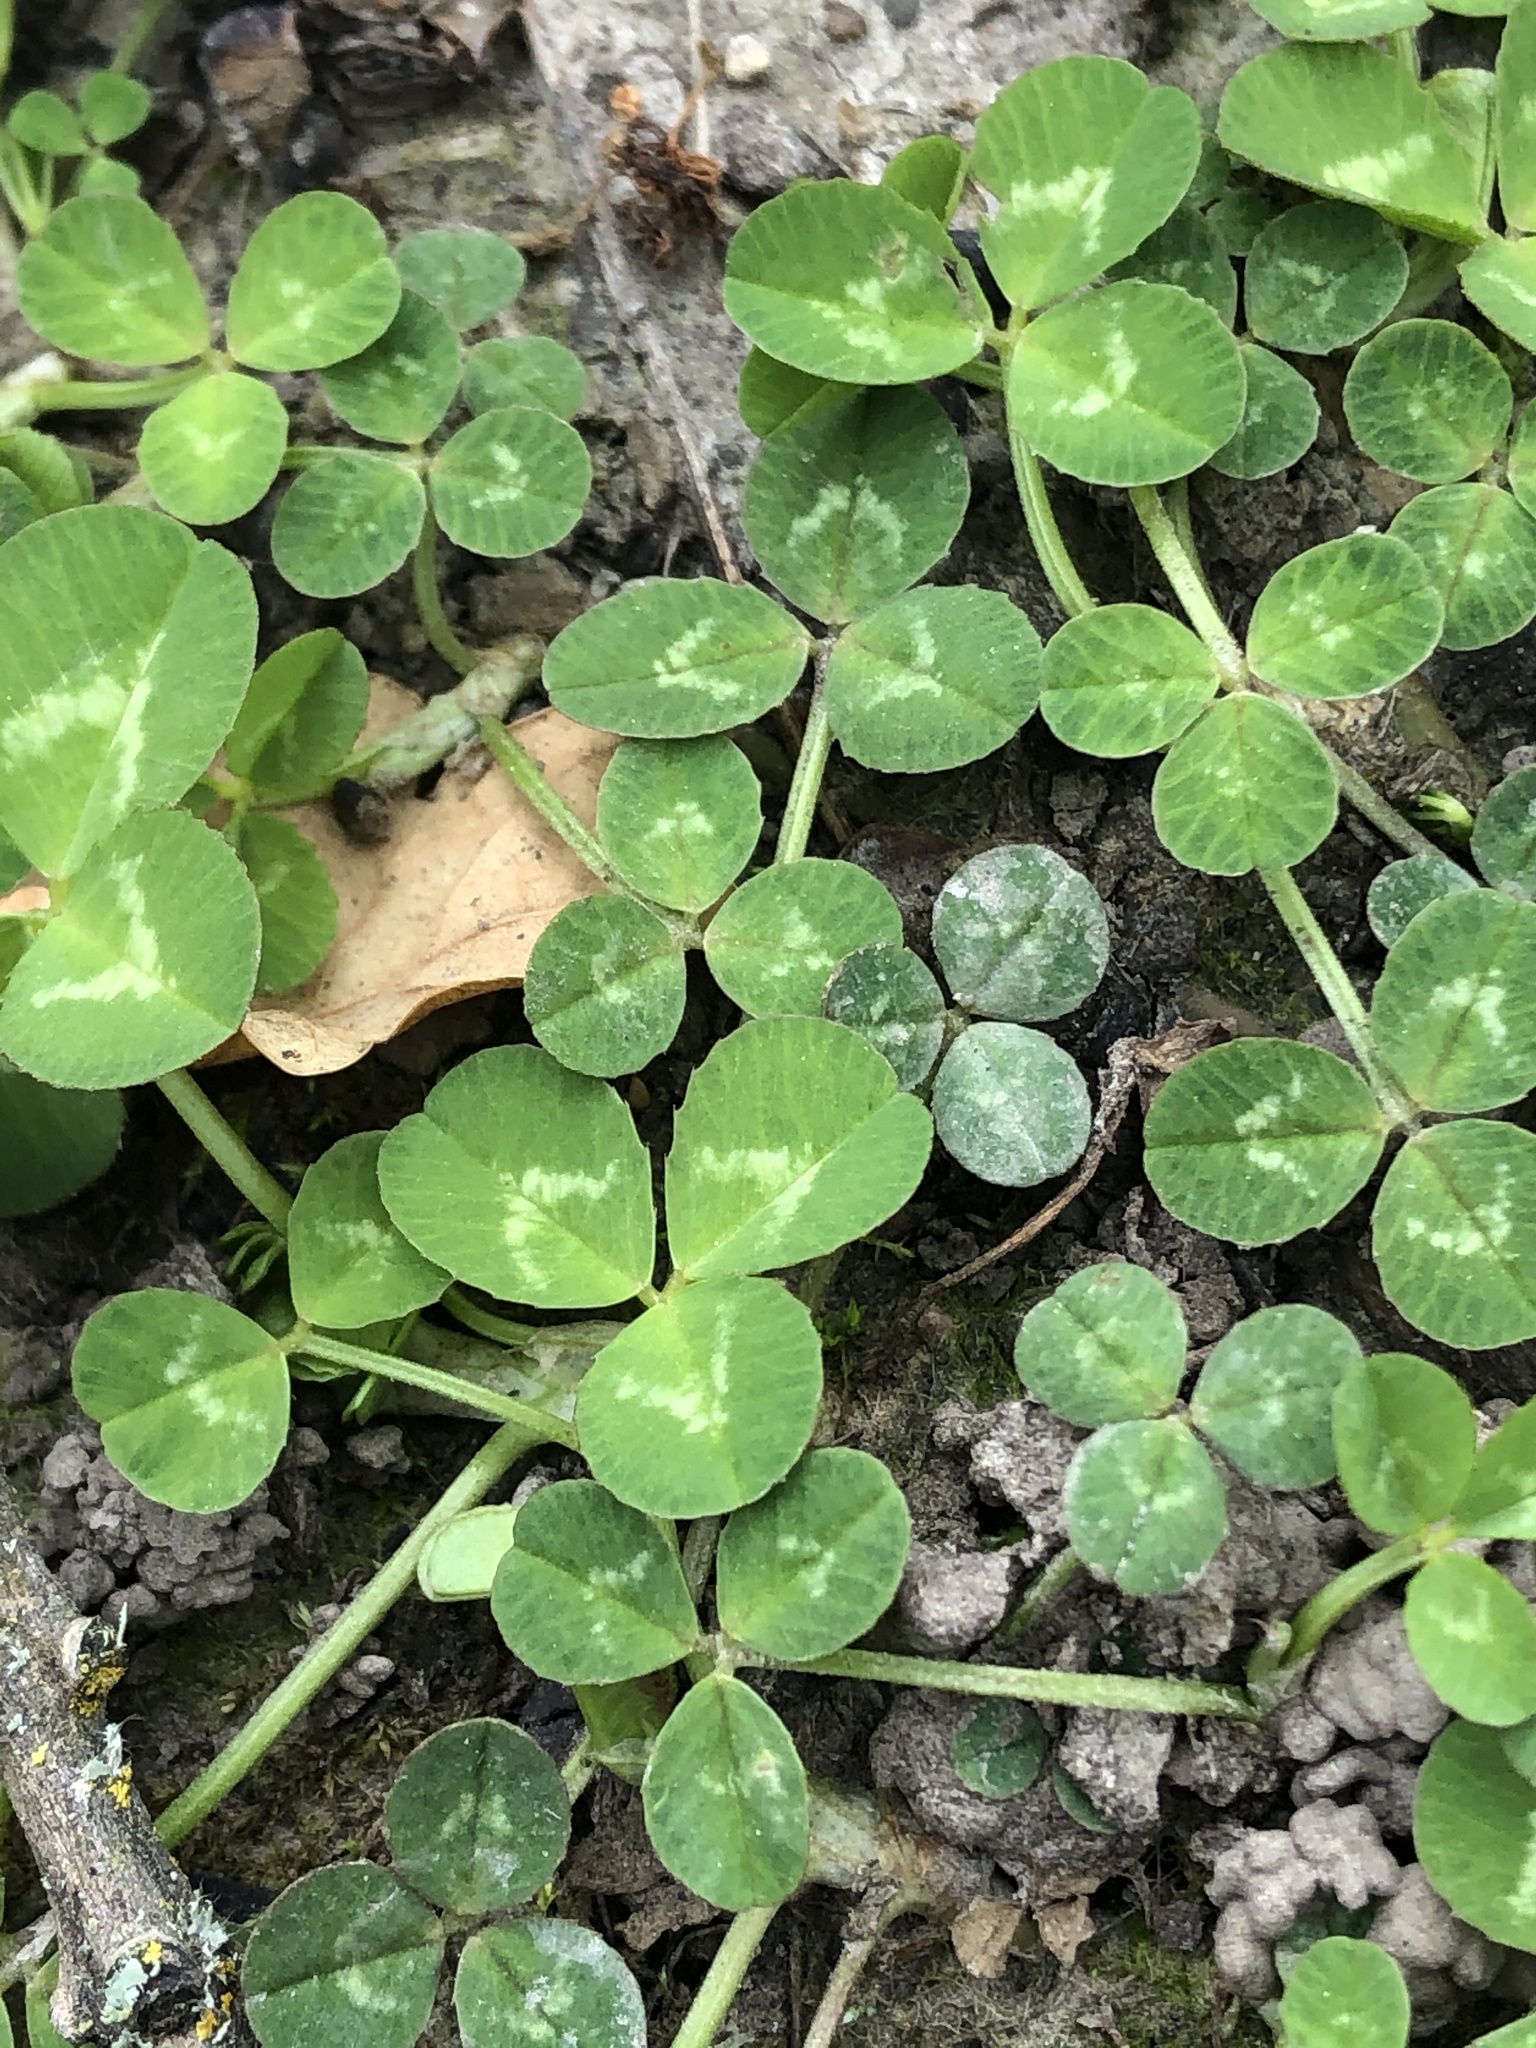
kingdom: Plantae
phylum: Tracheophyta
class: Magnoliopsida
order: Fabales
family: Fabaceae
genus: Trifolium
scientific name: Trifolium repens
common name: White clover
